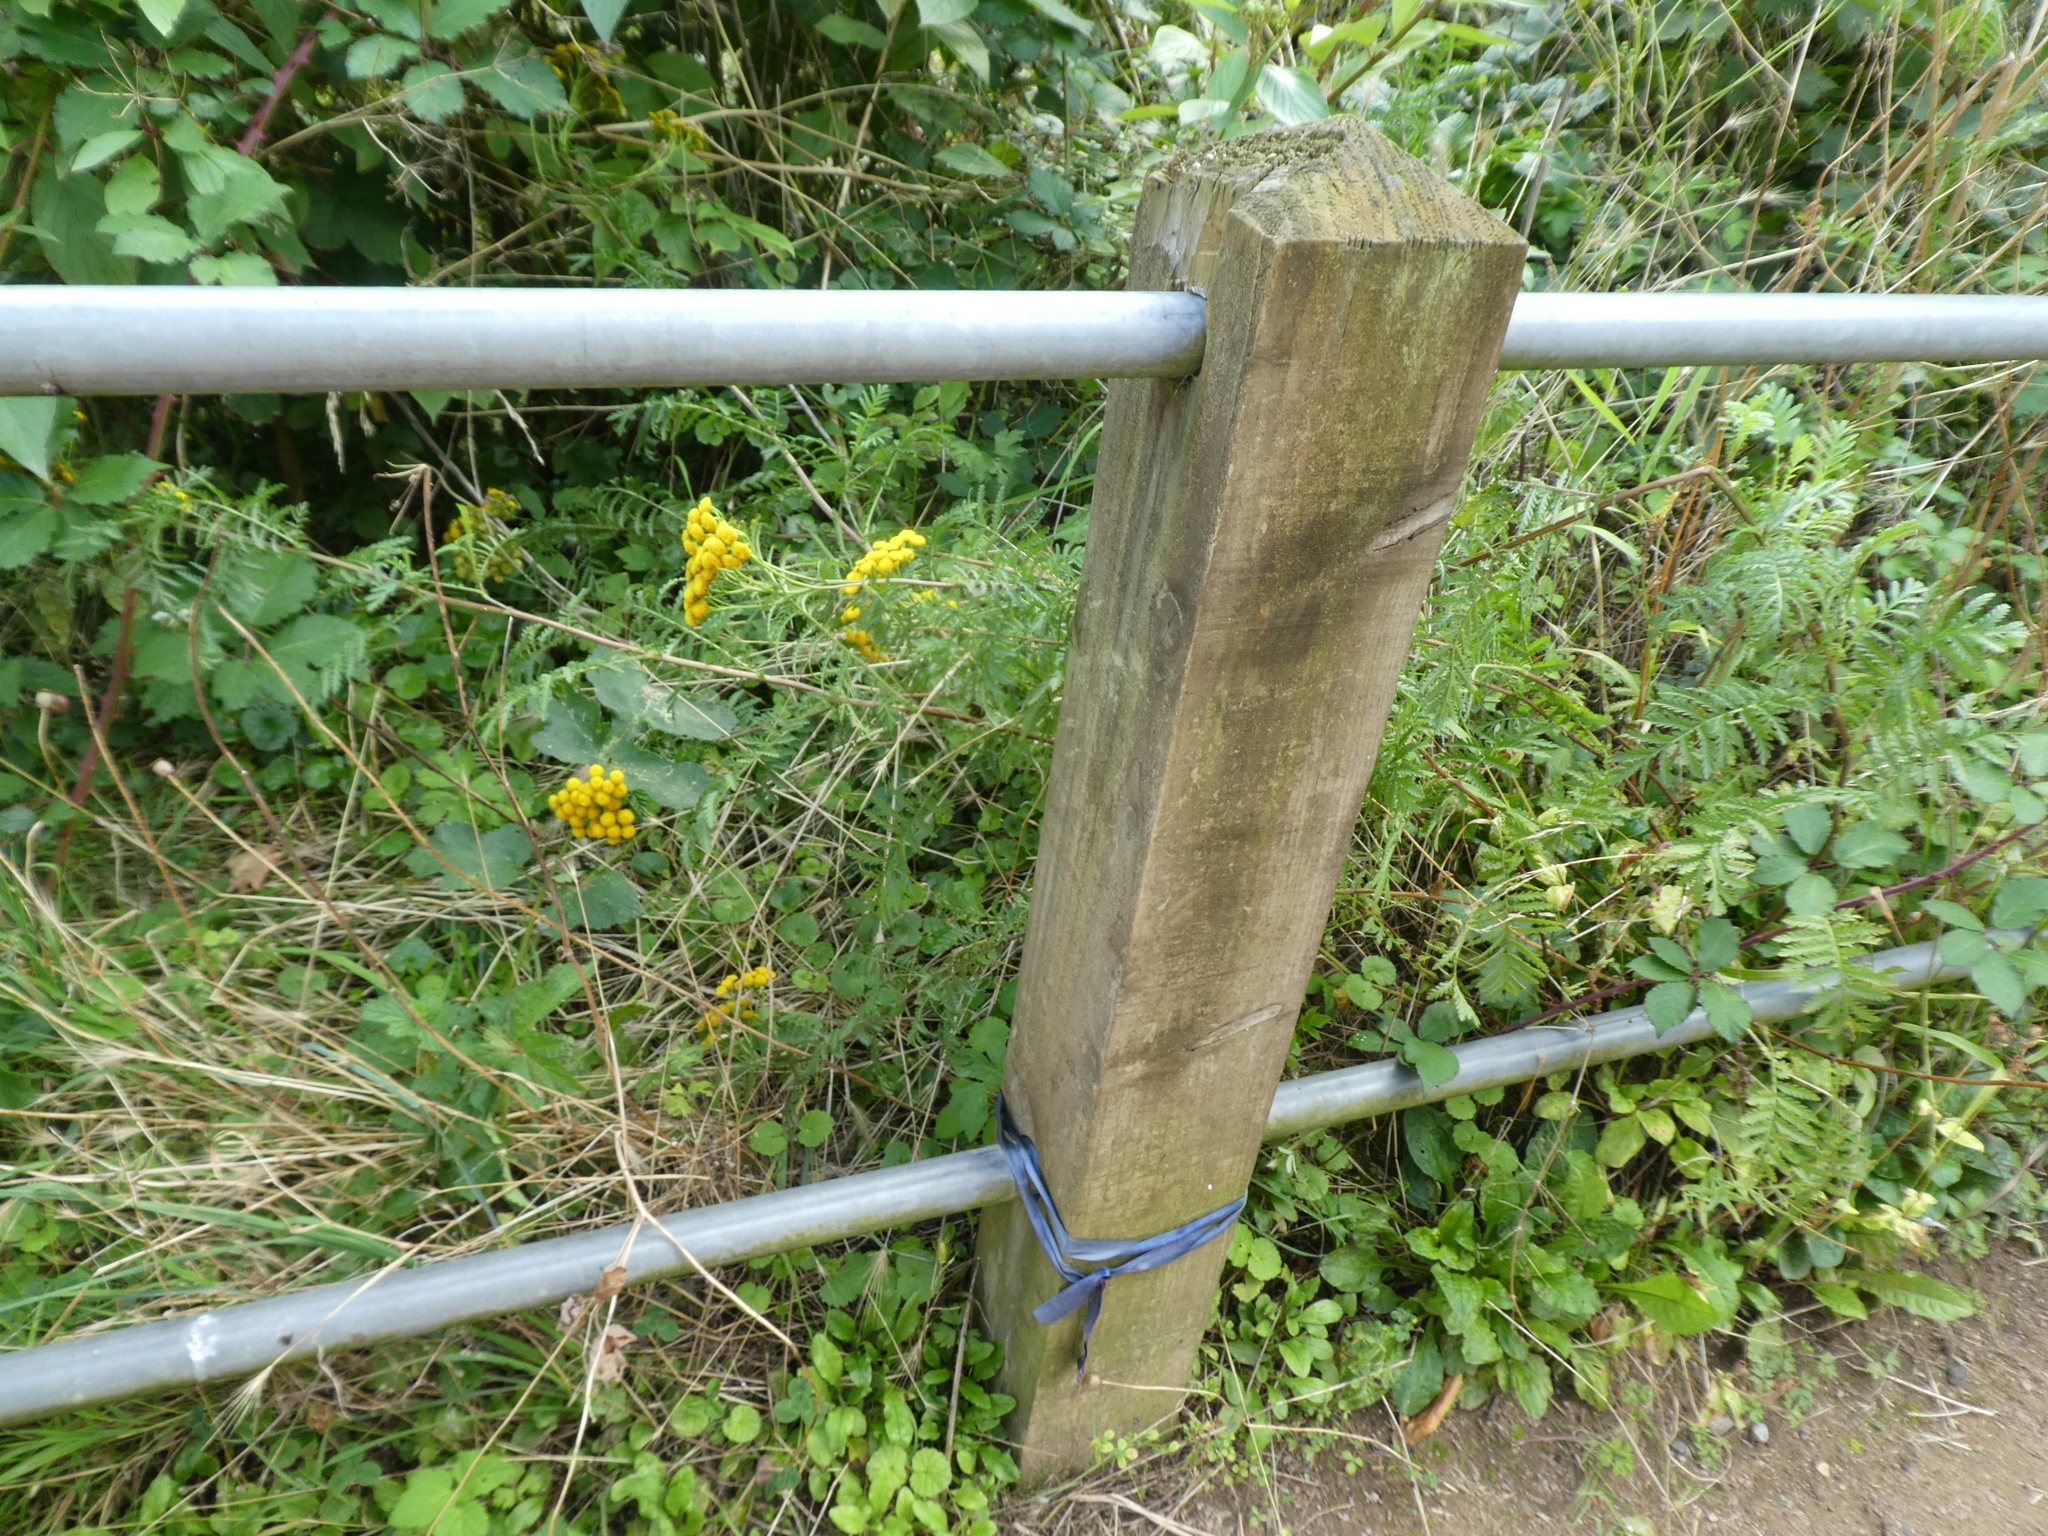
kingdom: Plantae
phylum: Tracheophyta
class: Magnoliopsida
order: Asterales
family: Asteraceae
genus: Tanacetum
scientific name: Tanacetum vulgare
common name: Common tansy
